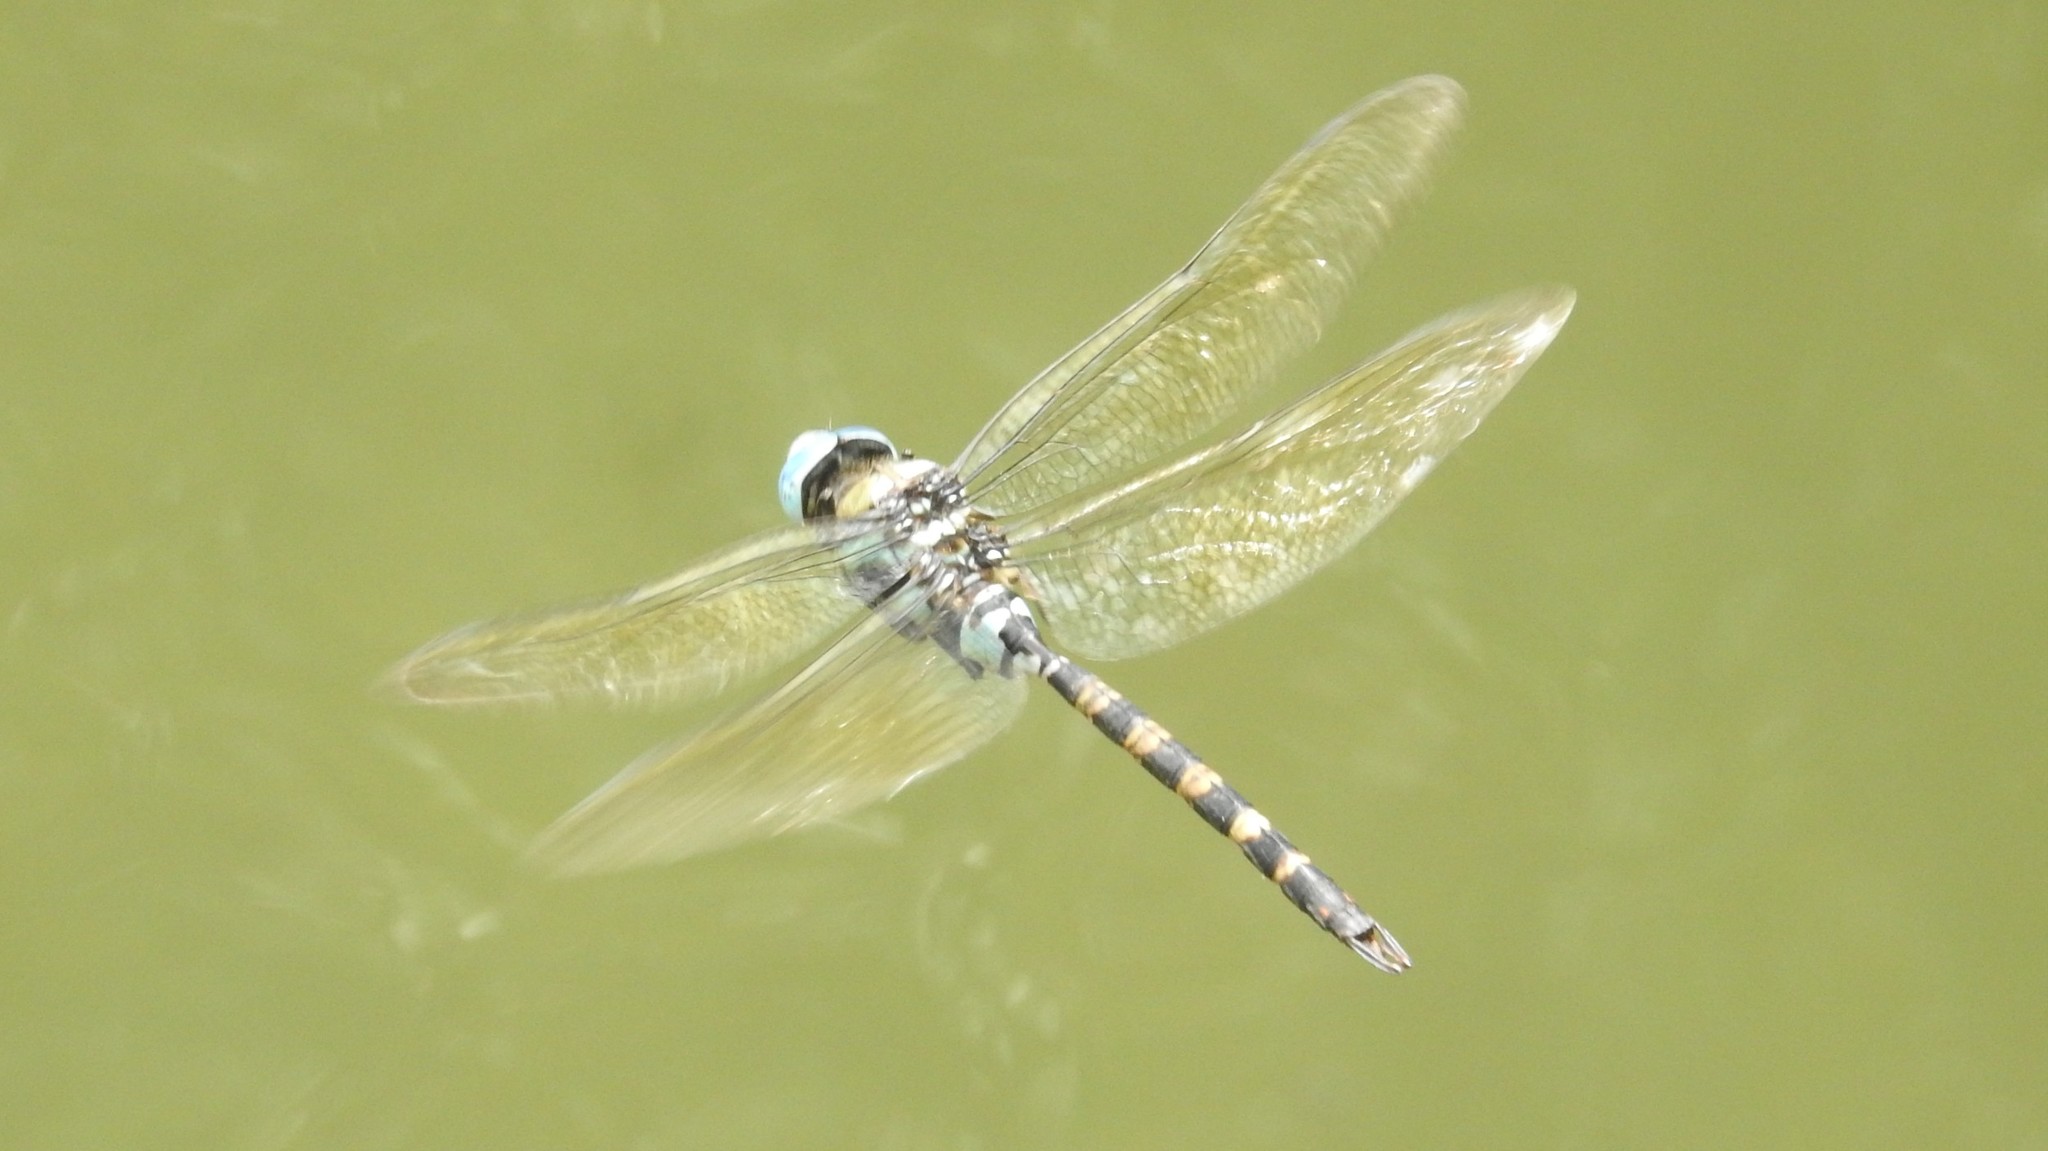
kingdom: Animalia
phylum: Arthropoda
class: Insecta
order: Odonata
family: Aeshnidae
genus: Anax
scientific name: Anax immaculifrons
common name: Magnificent emperor
